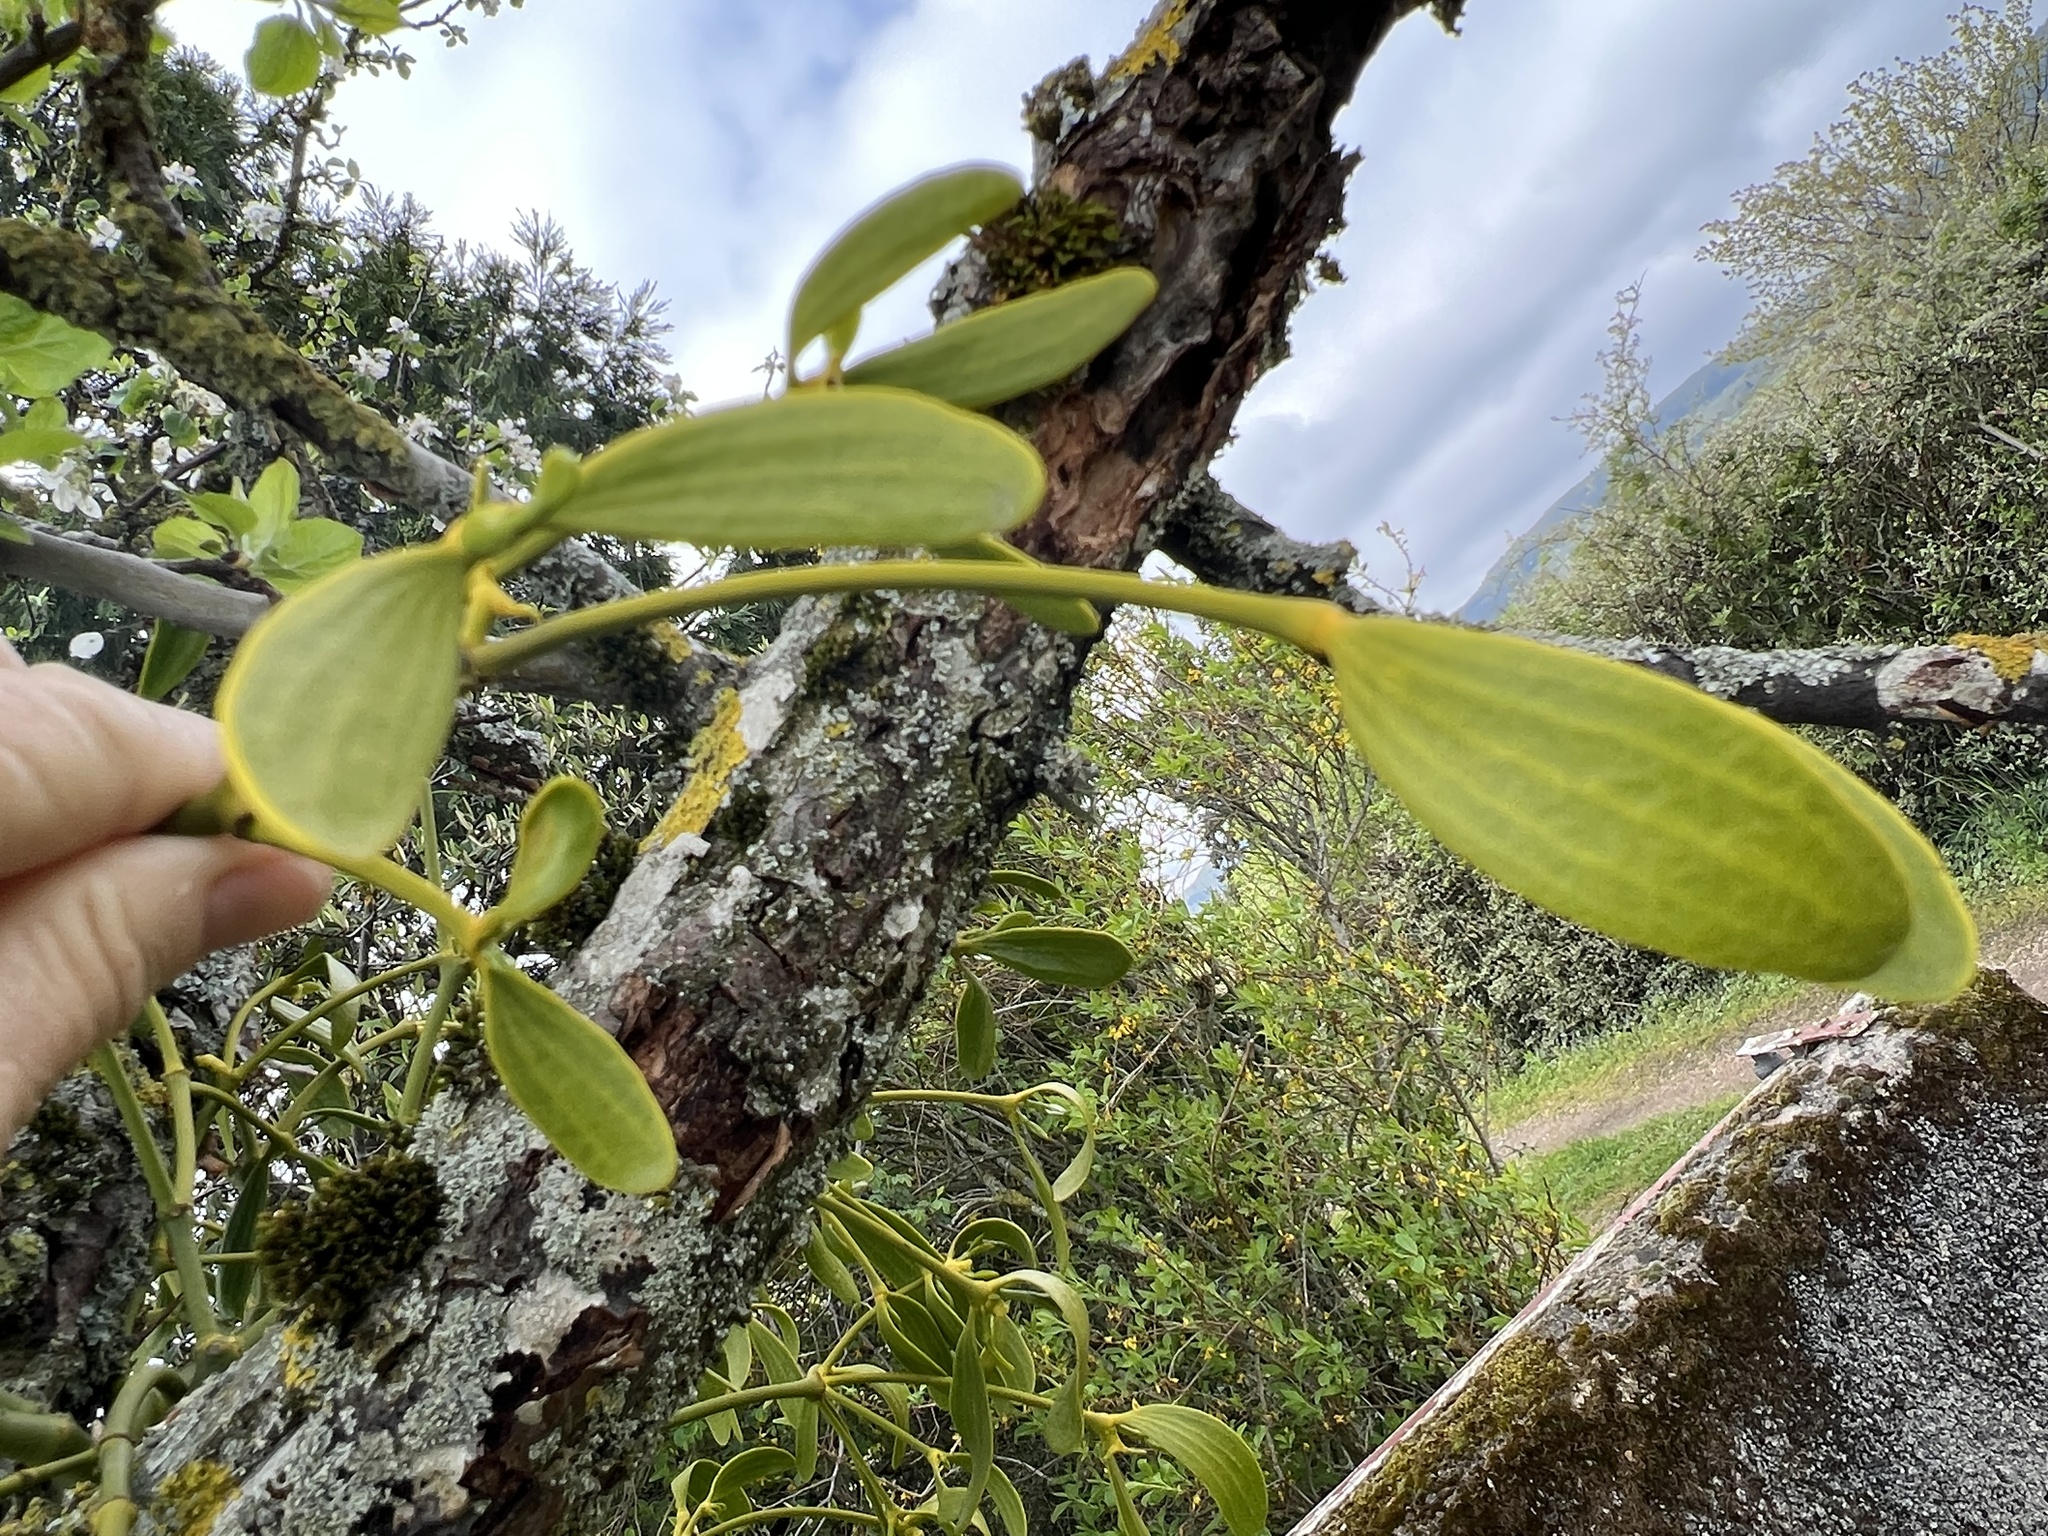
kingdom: Plantae
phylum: Tracheophyta
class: Magnoliopsida
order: Santalales
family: Viscaceae
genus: Viscum
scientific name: Viscum album
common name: Mistletoe
